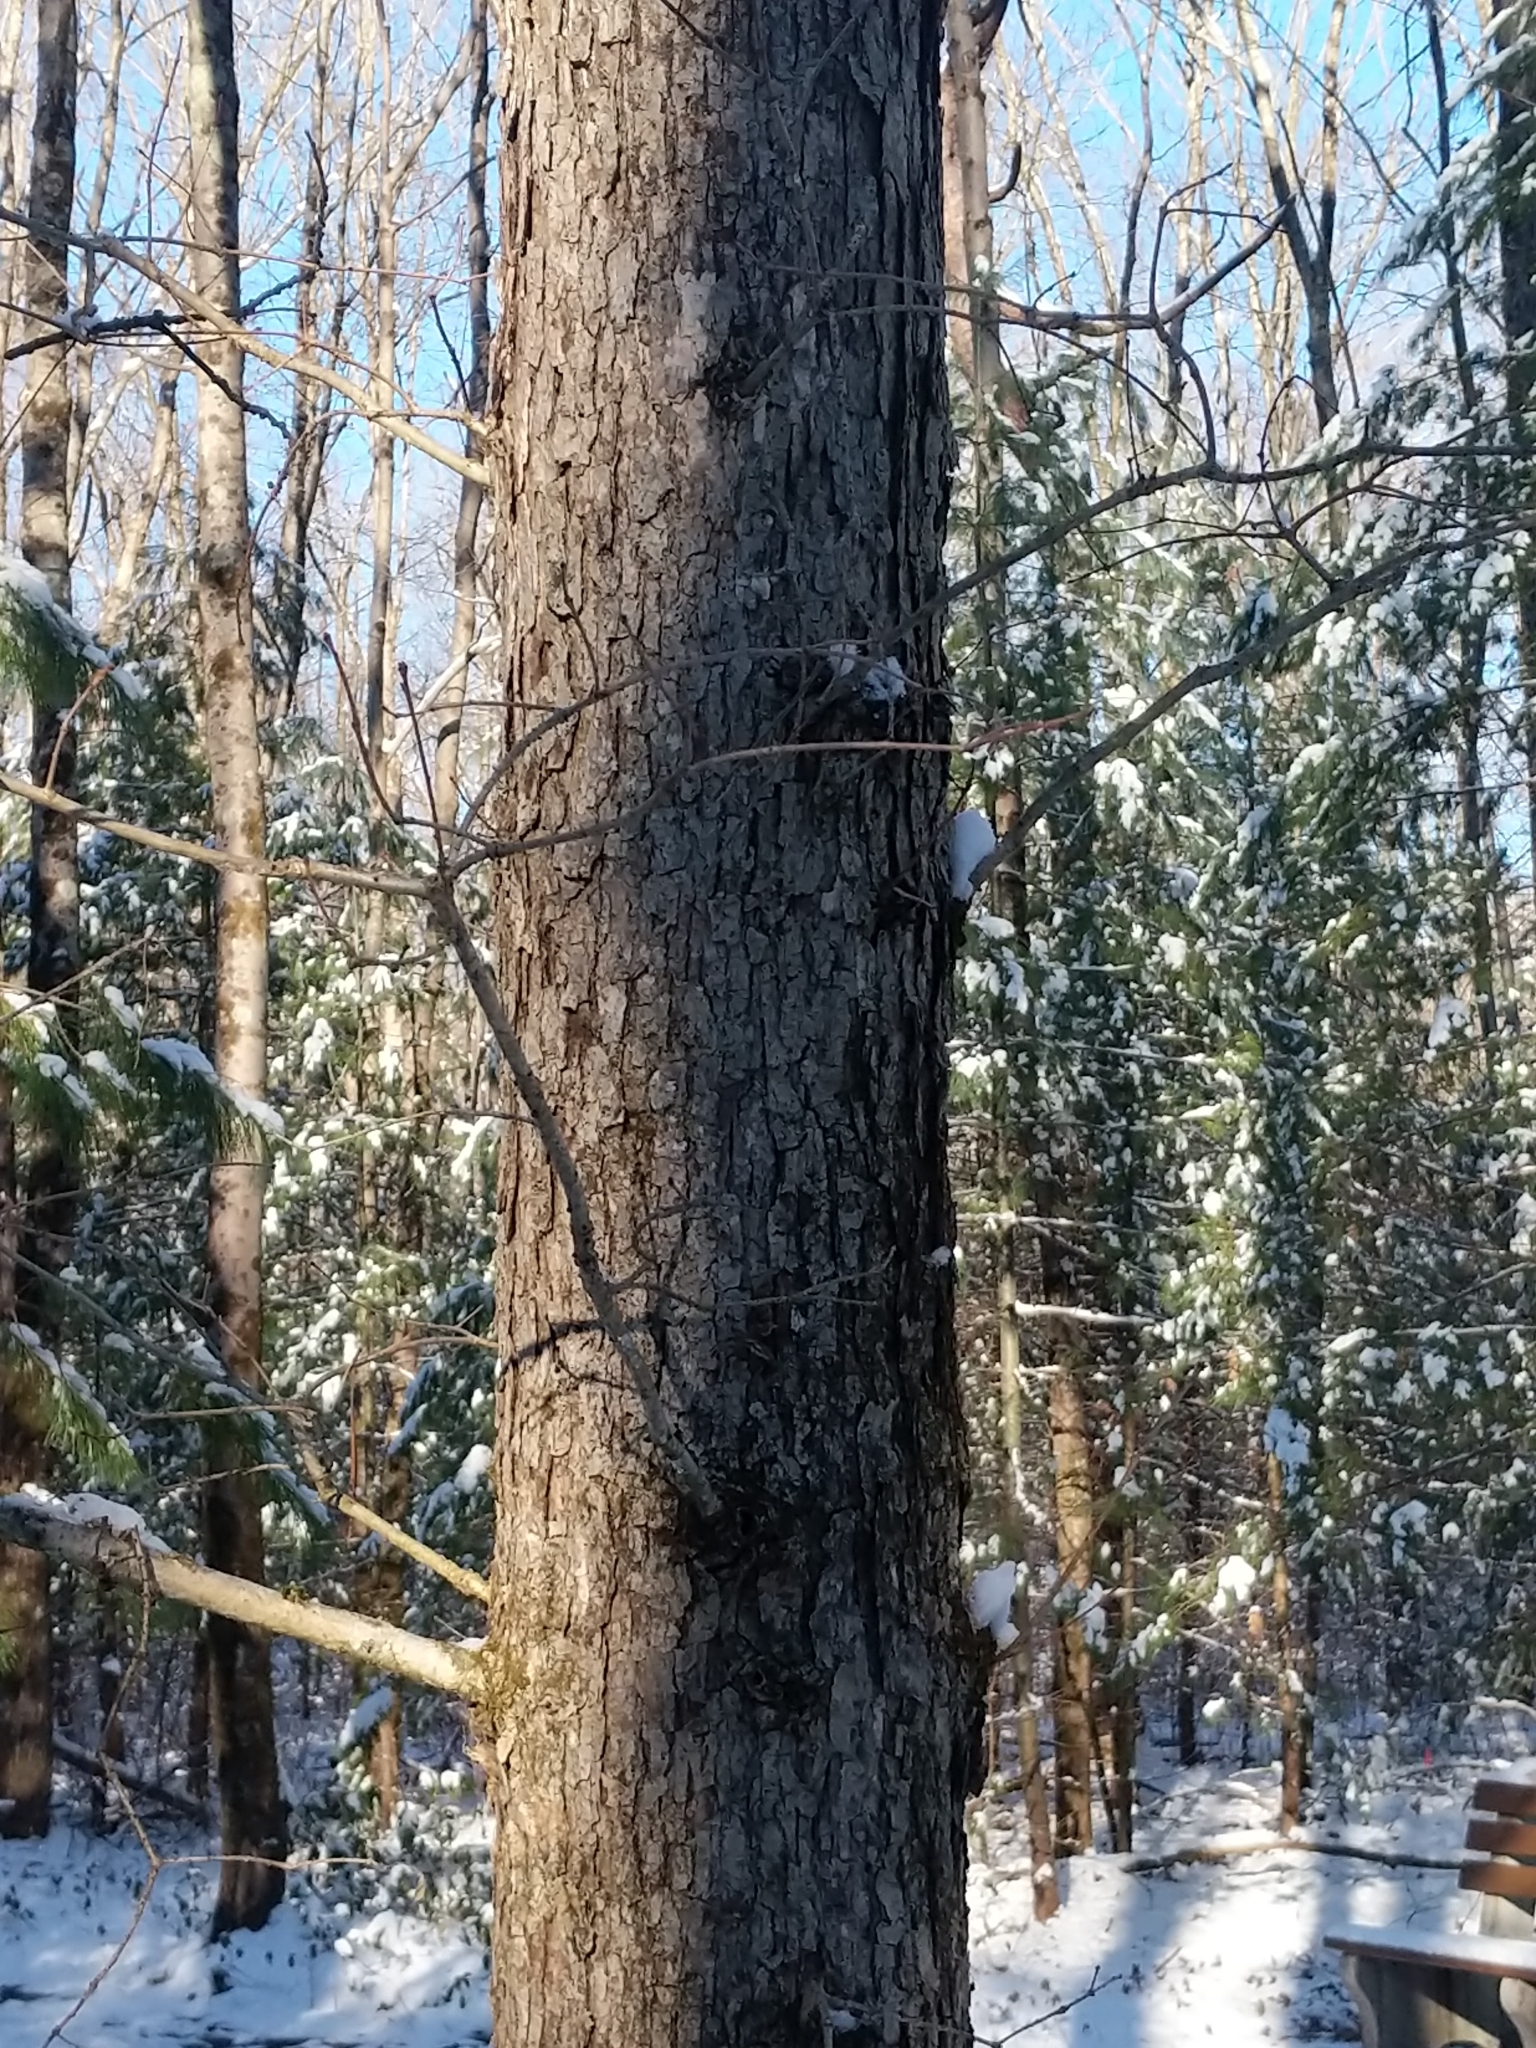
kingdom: Plantae
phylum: Tracheophyta
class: Magnoliopsida
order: Fagales
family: Fagaceae
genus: Quercus
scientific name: Quercus alba
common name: White oak
